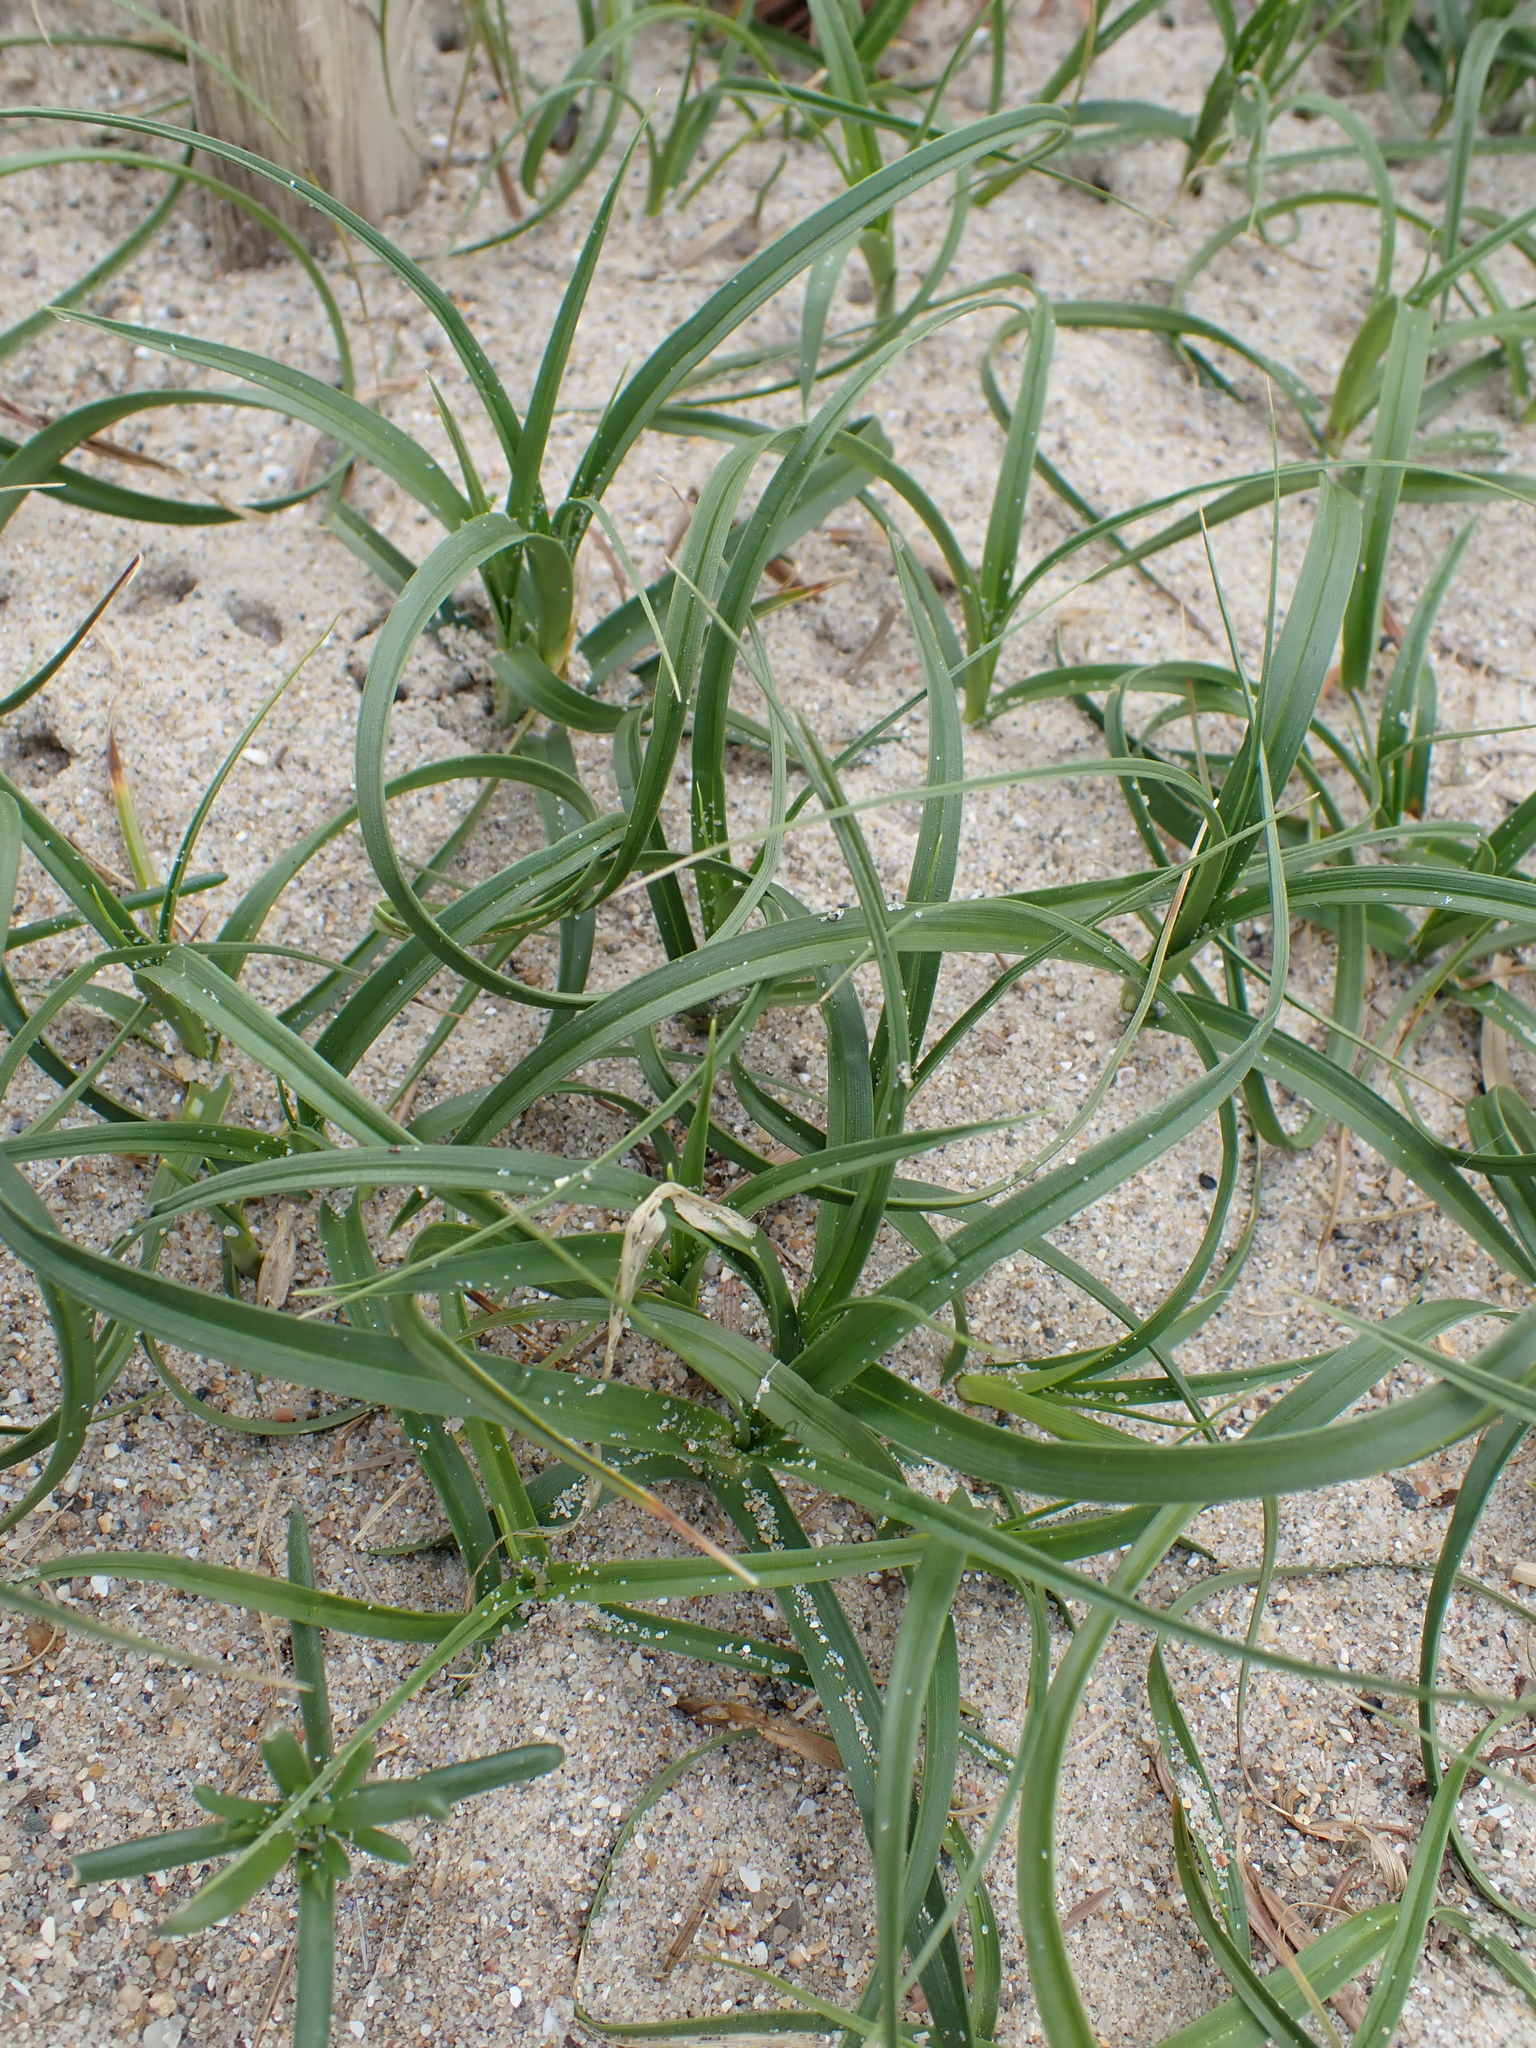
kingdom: Plantae
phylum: Tracheophyta
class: Liliopsida
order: Poales
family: Cyperaceae
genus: Carex
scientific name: Carex arenaria
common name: Sand sedge
